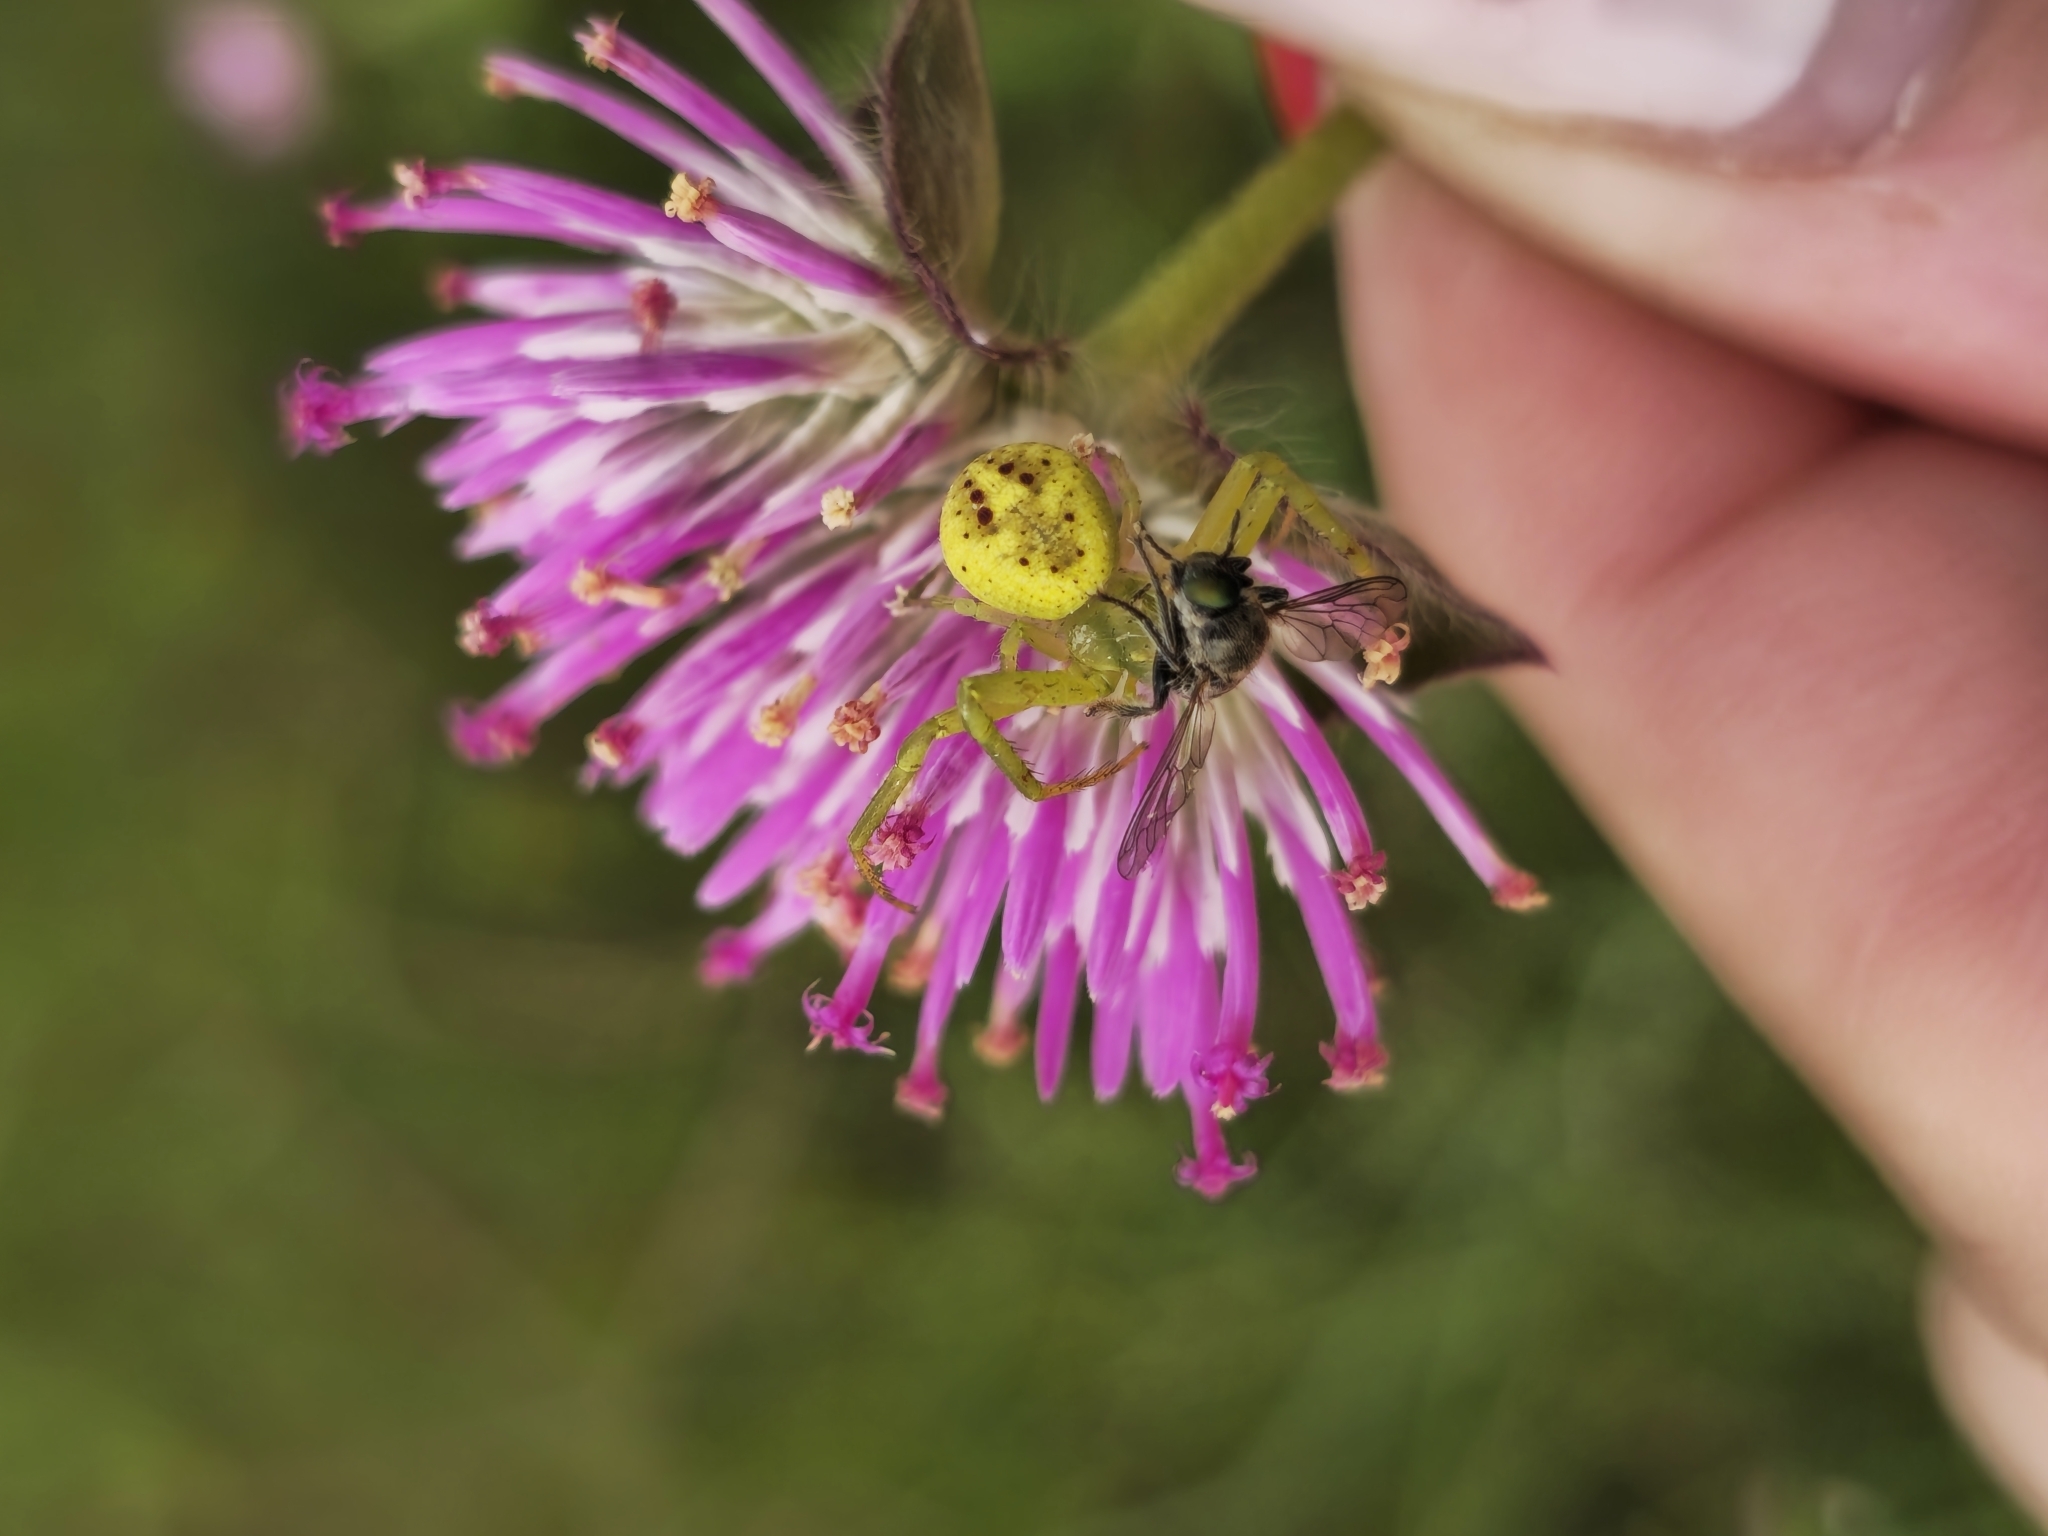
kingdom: Animalia
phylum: Arthropoda
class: Arachnida
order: Araneae
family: Thomisidae
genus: Misumenops
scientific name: Misumenops
